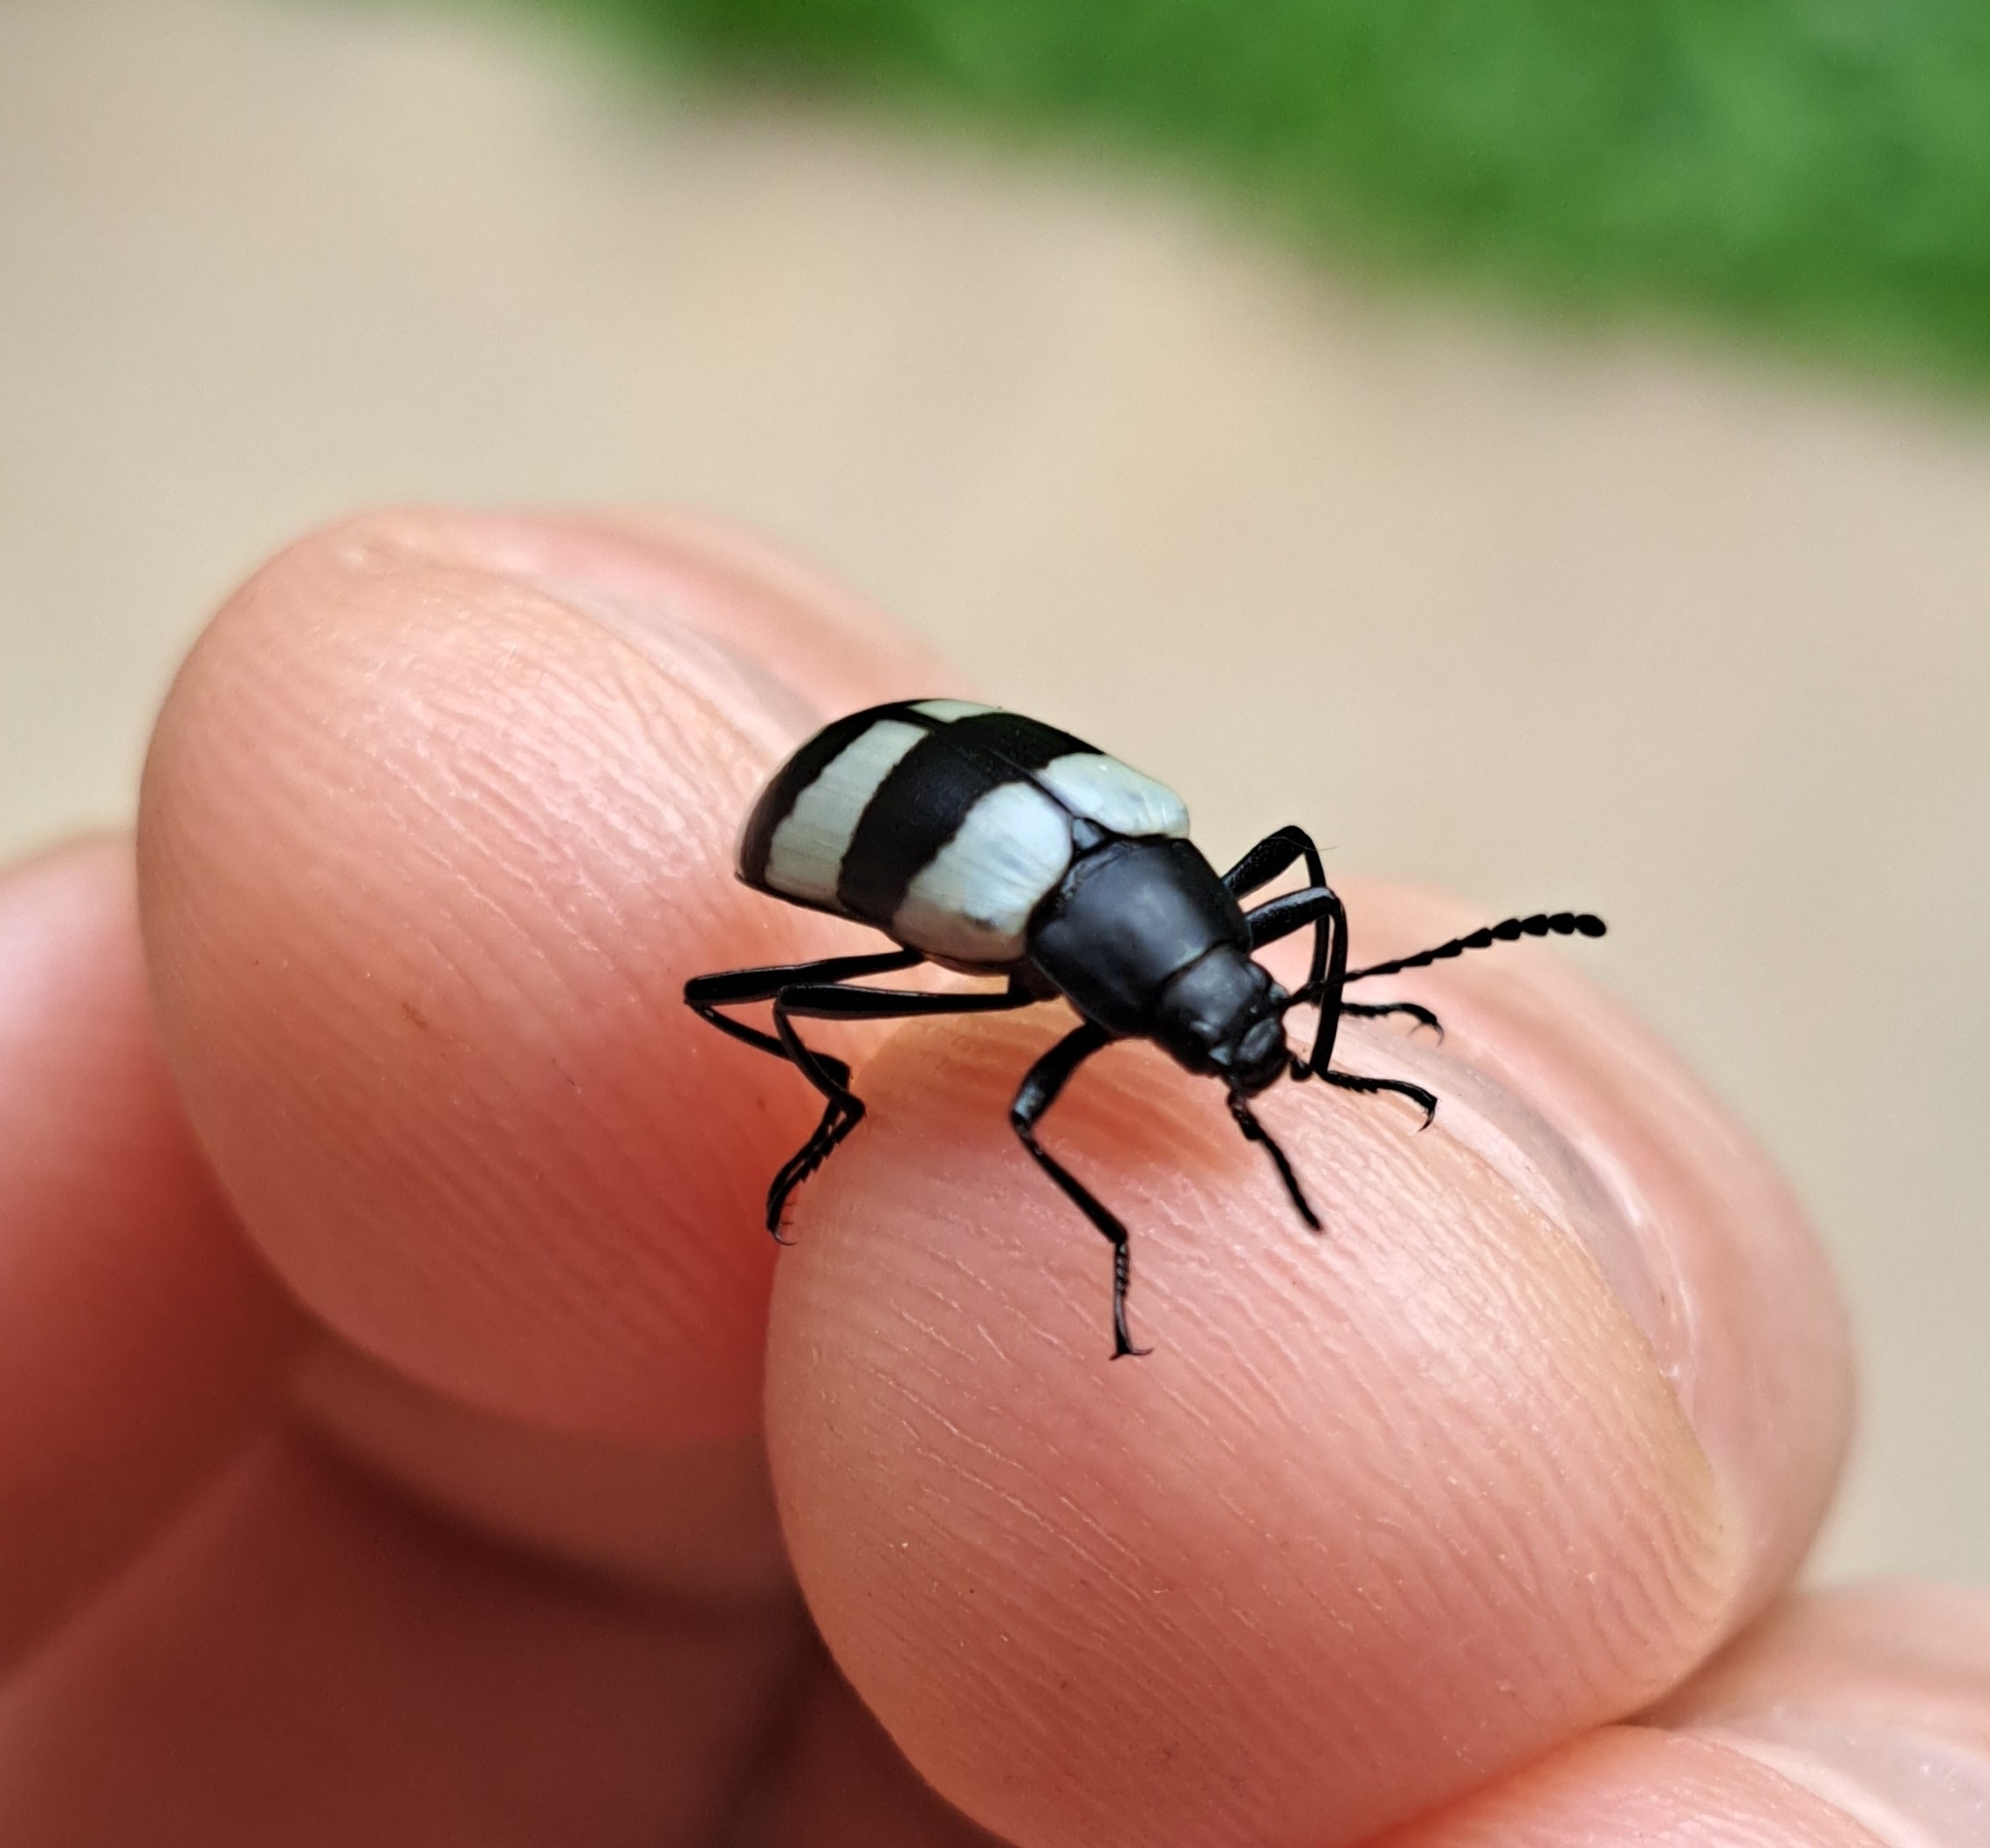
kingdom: Animalia
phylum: Arthropoda
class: Insecta
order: Coleoptera
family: Tenebrionidae
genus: Poecilesthus
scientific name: Poecilesthus
